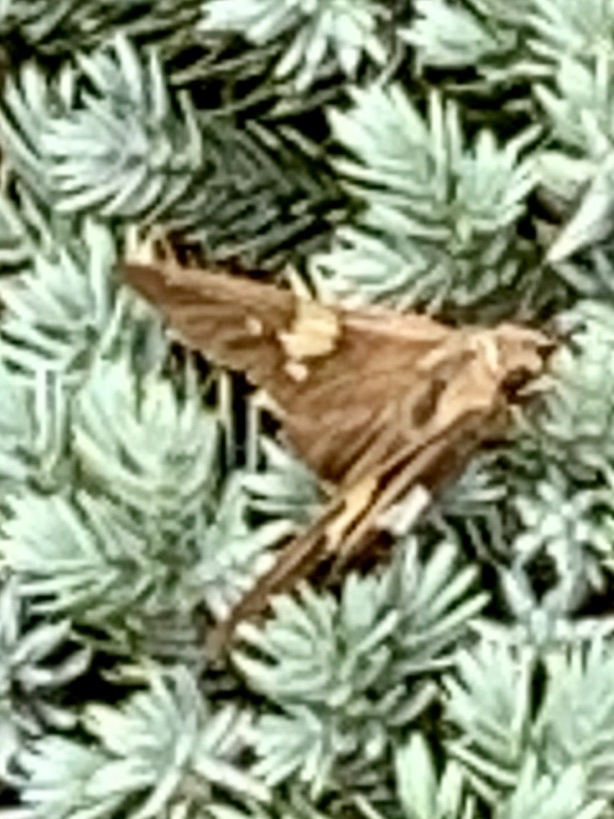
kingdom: Animalia
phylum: Arthropoda
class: Insecta
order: Lepidoptera
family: Hesperiidae
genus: Epargyreus
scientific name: Epargyreus clarus
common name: Silver-spotted skipper
